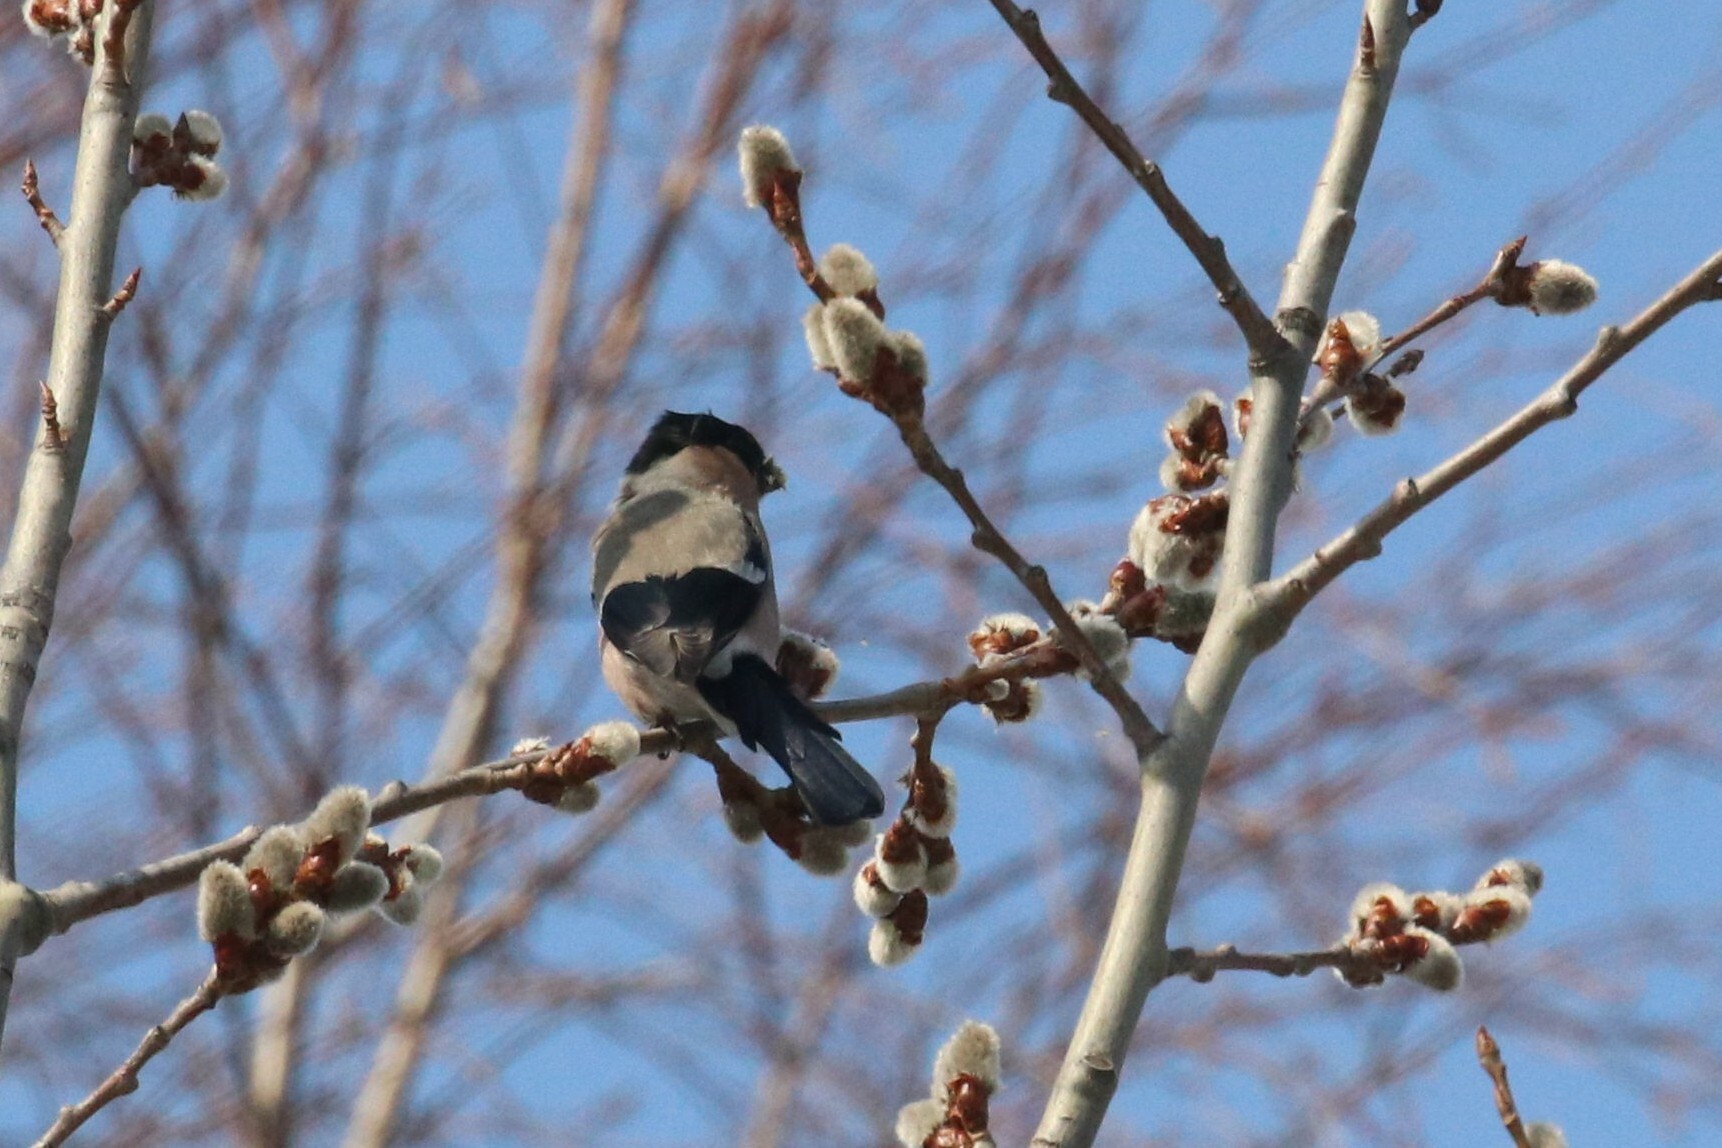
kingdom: Animalia
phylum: Chordata
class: Aves
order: Passeriformes
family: Fringillidae
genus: Pyrrhula
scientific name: Pyrrhula pyrrhula
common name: Eurasian bullfinch
